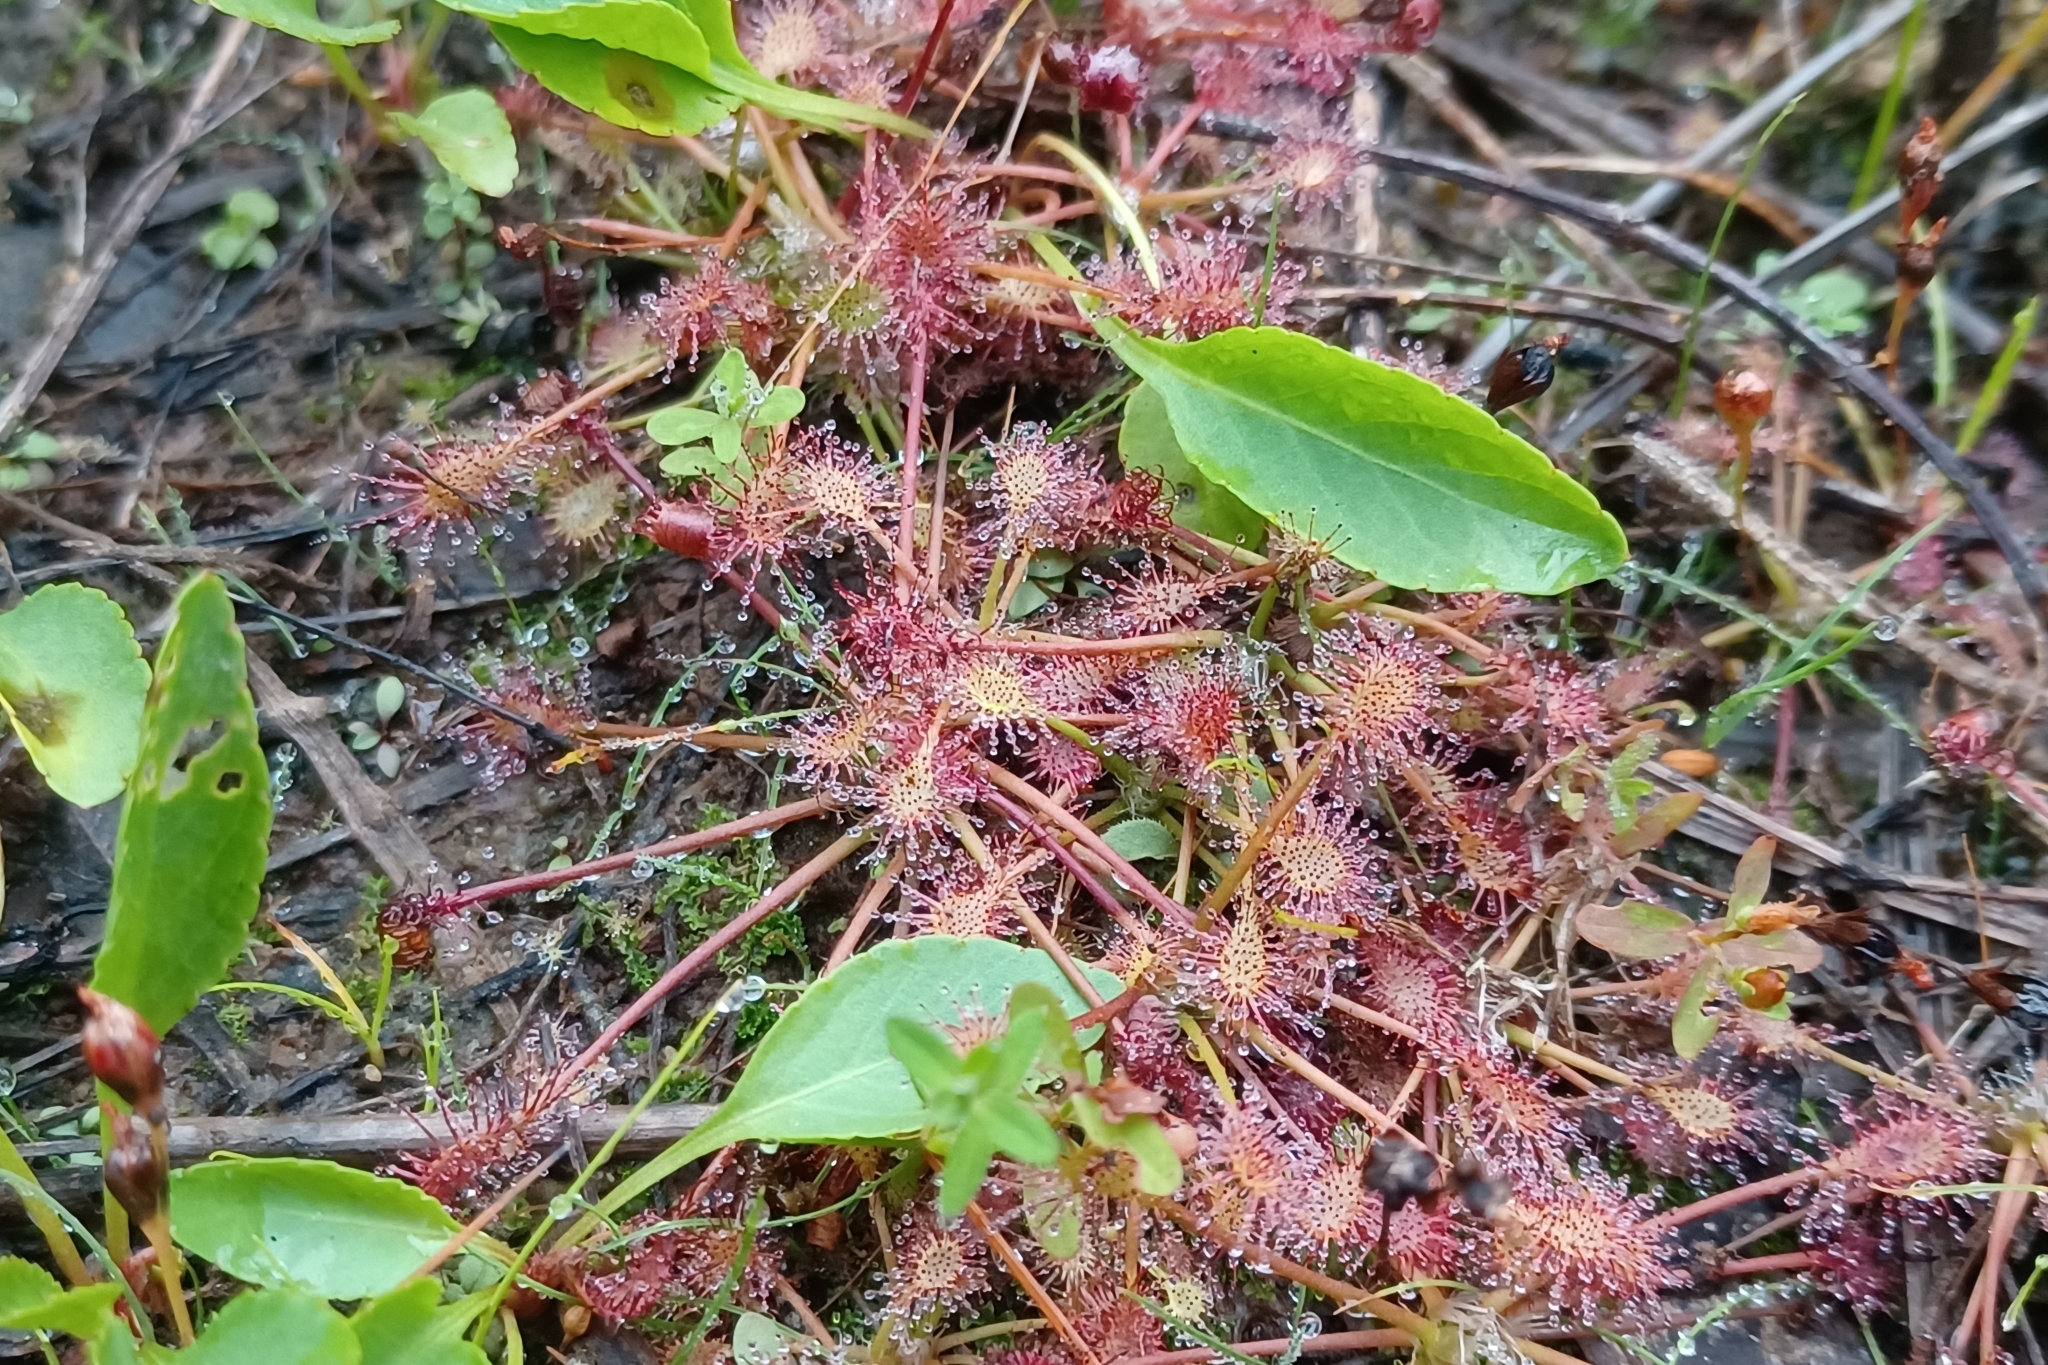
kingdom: Plantae
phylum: Tracheophyta
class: Magnoliopsida
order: Caryophyllales
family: Droseraceae
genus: Drosera
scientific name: Drosera intermedia
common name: Oblong-leaved sundew
